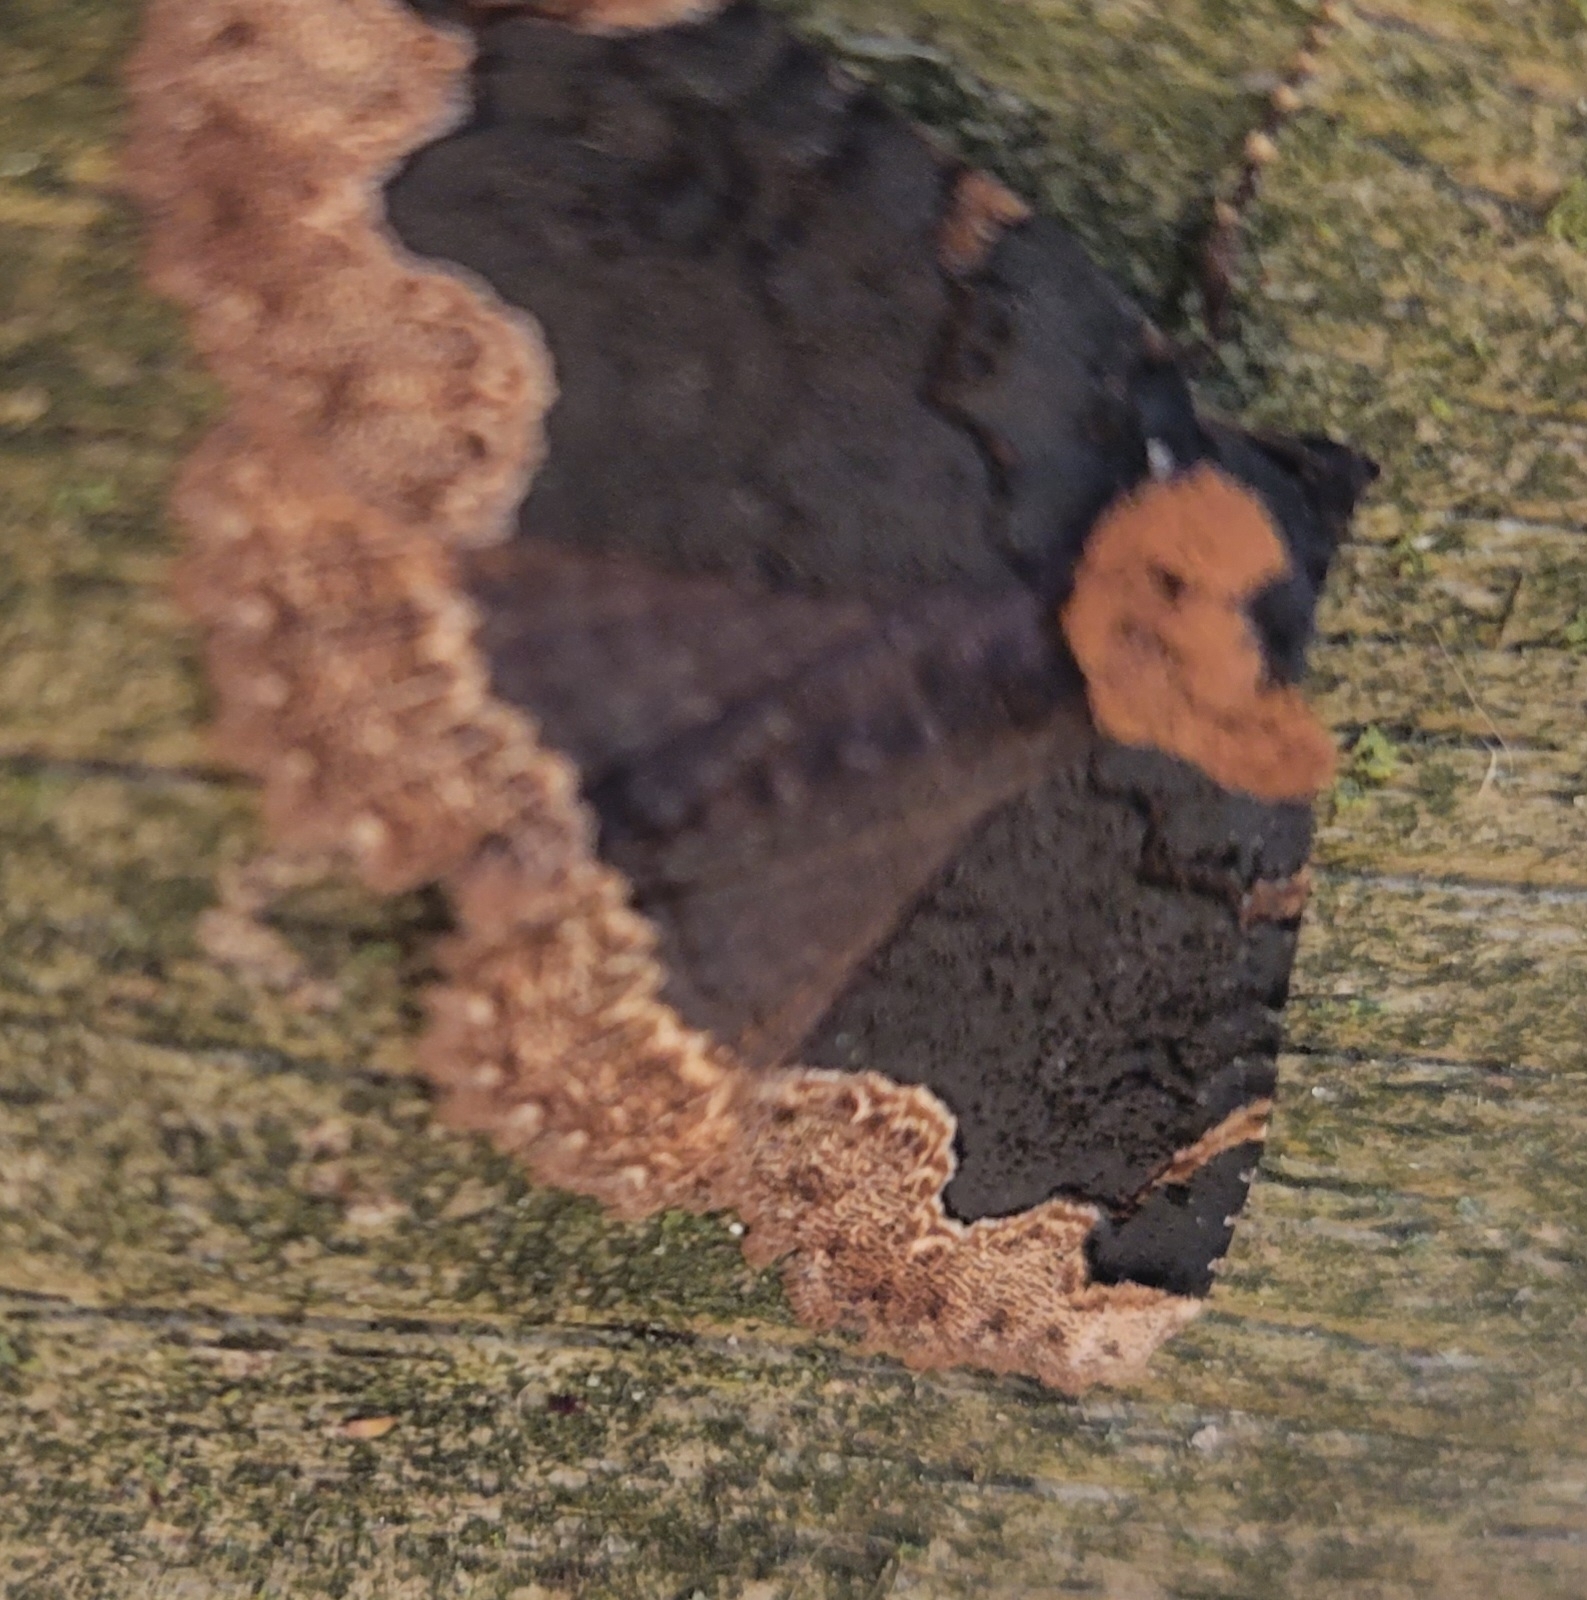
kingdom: Animalia
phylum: Arthropoda
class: Insecta
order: Lepidoptera
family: Erebidae
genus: Zale
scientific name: Zale horrida
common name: Horrid zale moth
